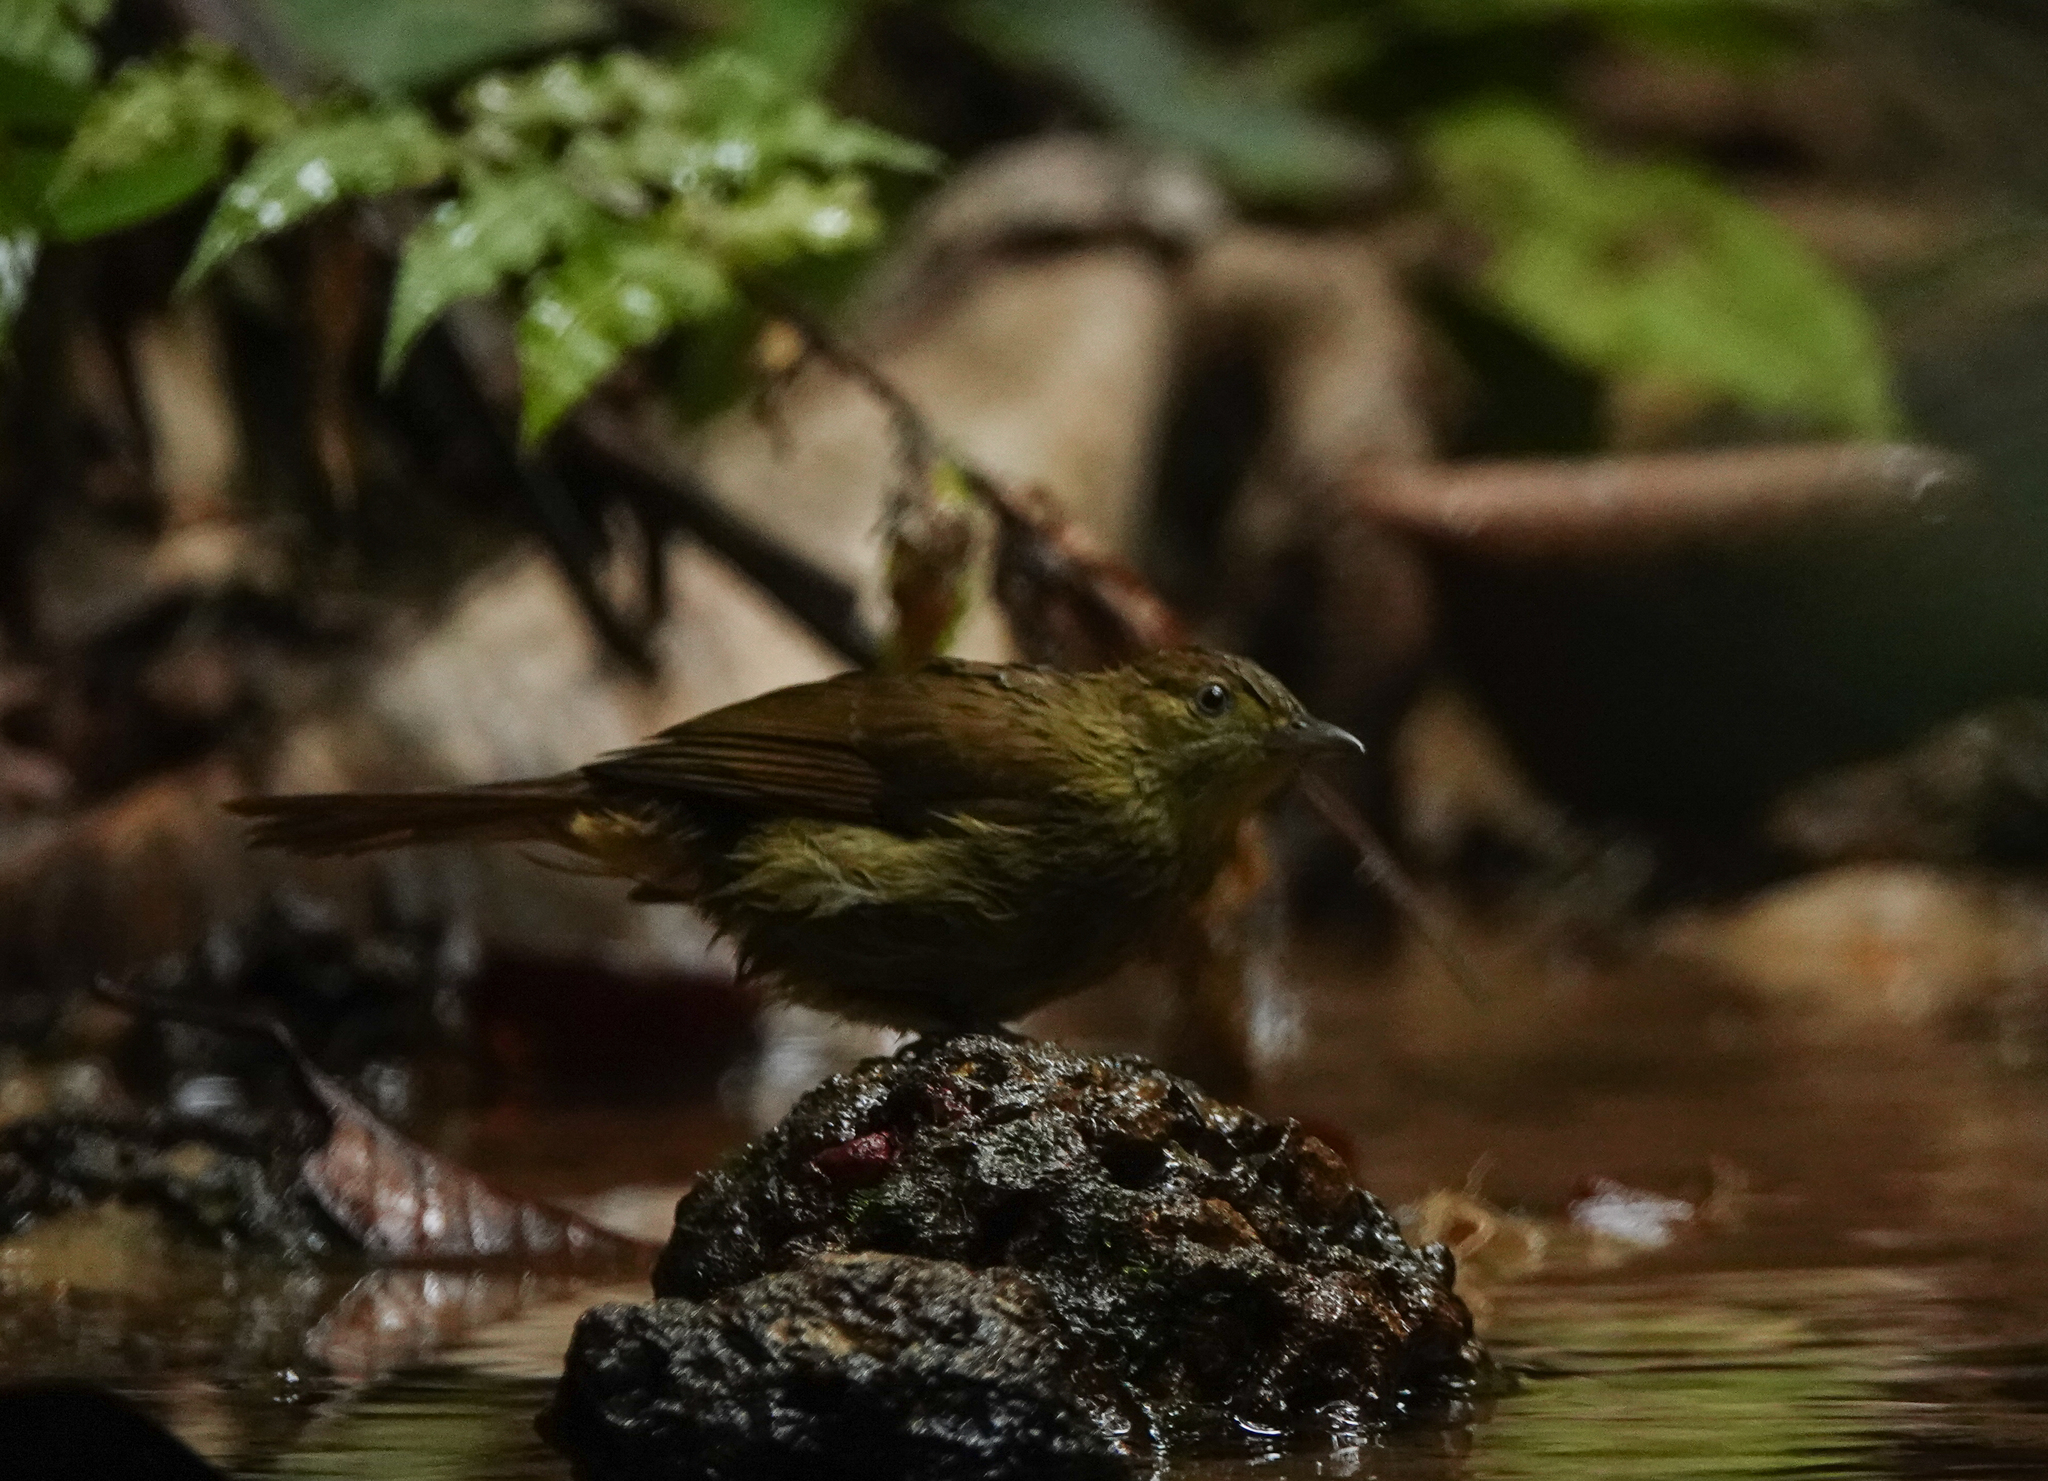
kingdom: Animalia
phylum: Chordata
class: Aves
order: Passeriformes
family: Pycnonotidae
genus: Iole
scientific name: Iole virescens
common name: Olive bulbul
